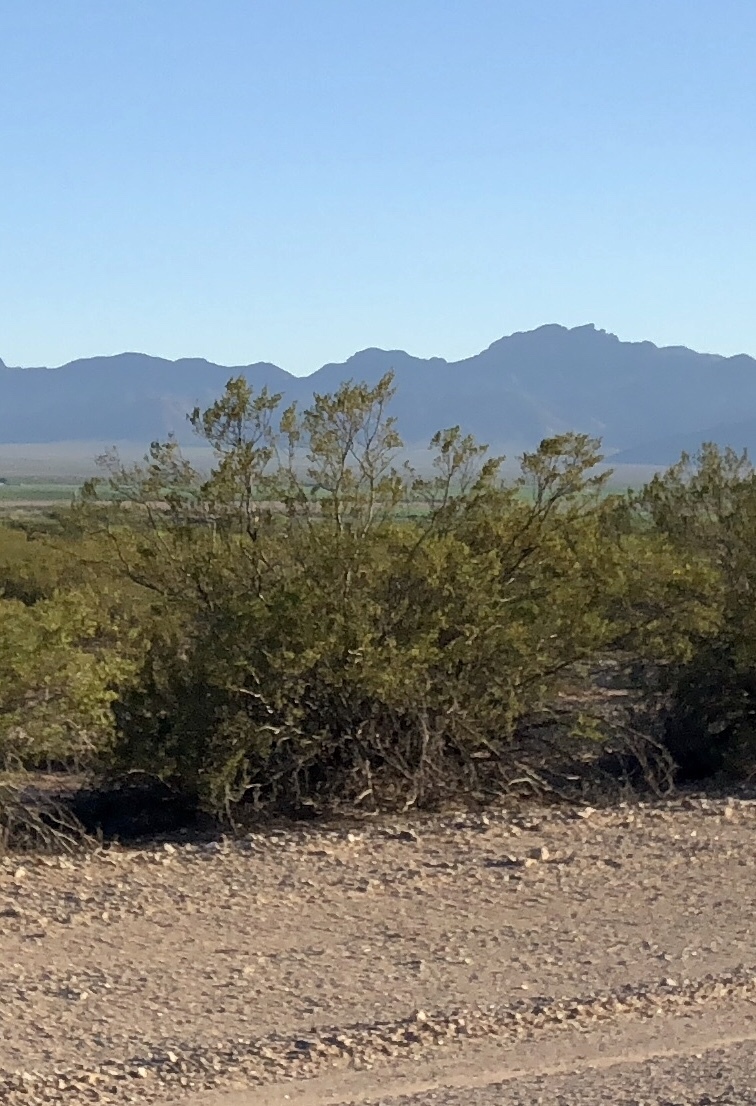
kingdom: Plantae
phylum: Tracheophyta
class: Magnoliopsida
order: Zygophyllales
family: Zygophyllaceae
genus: Larrea
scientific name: Larrea tridentata
